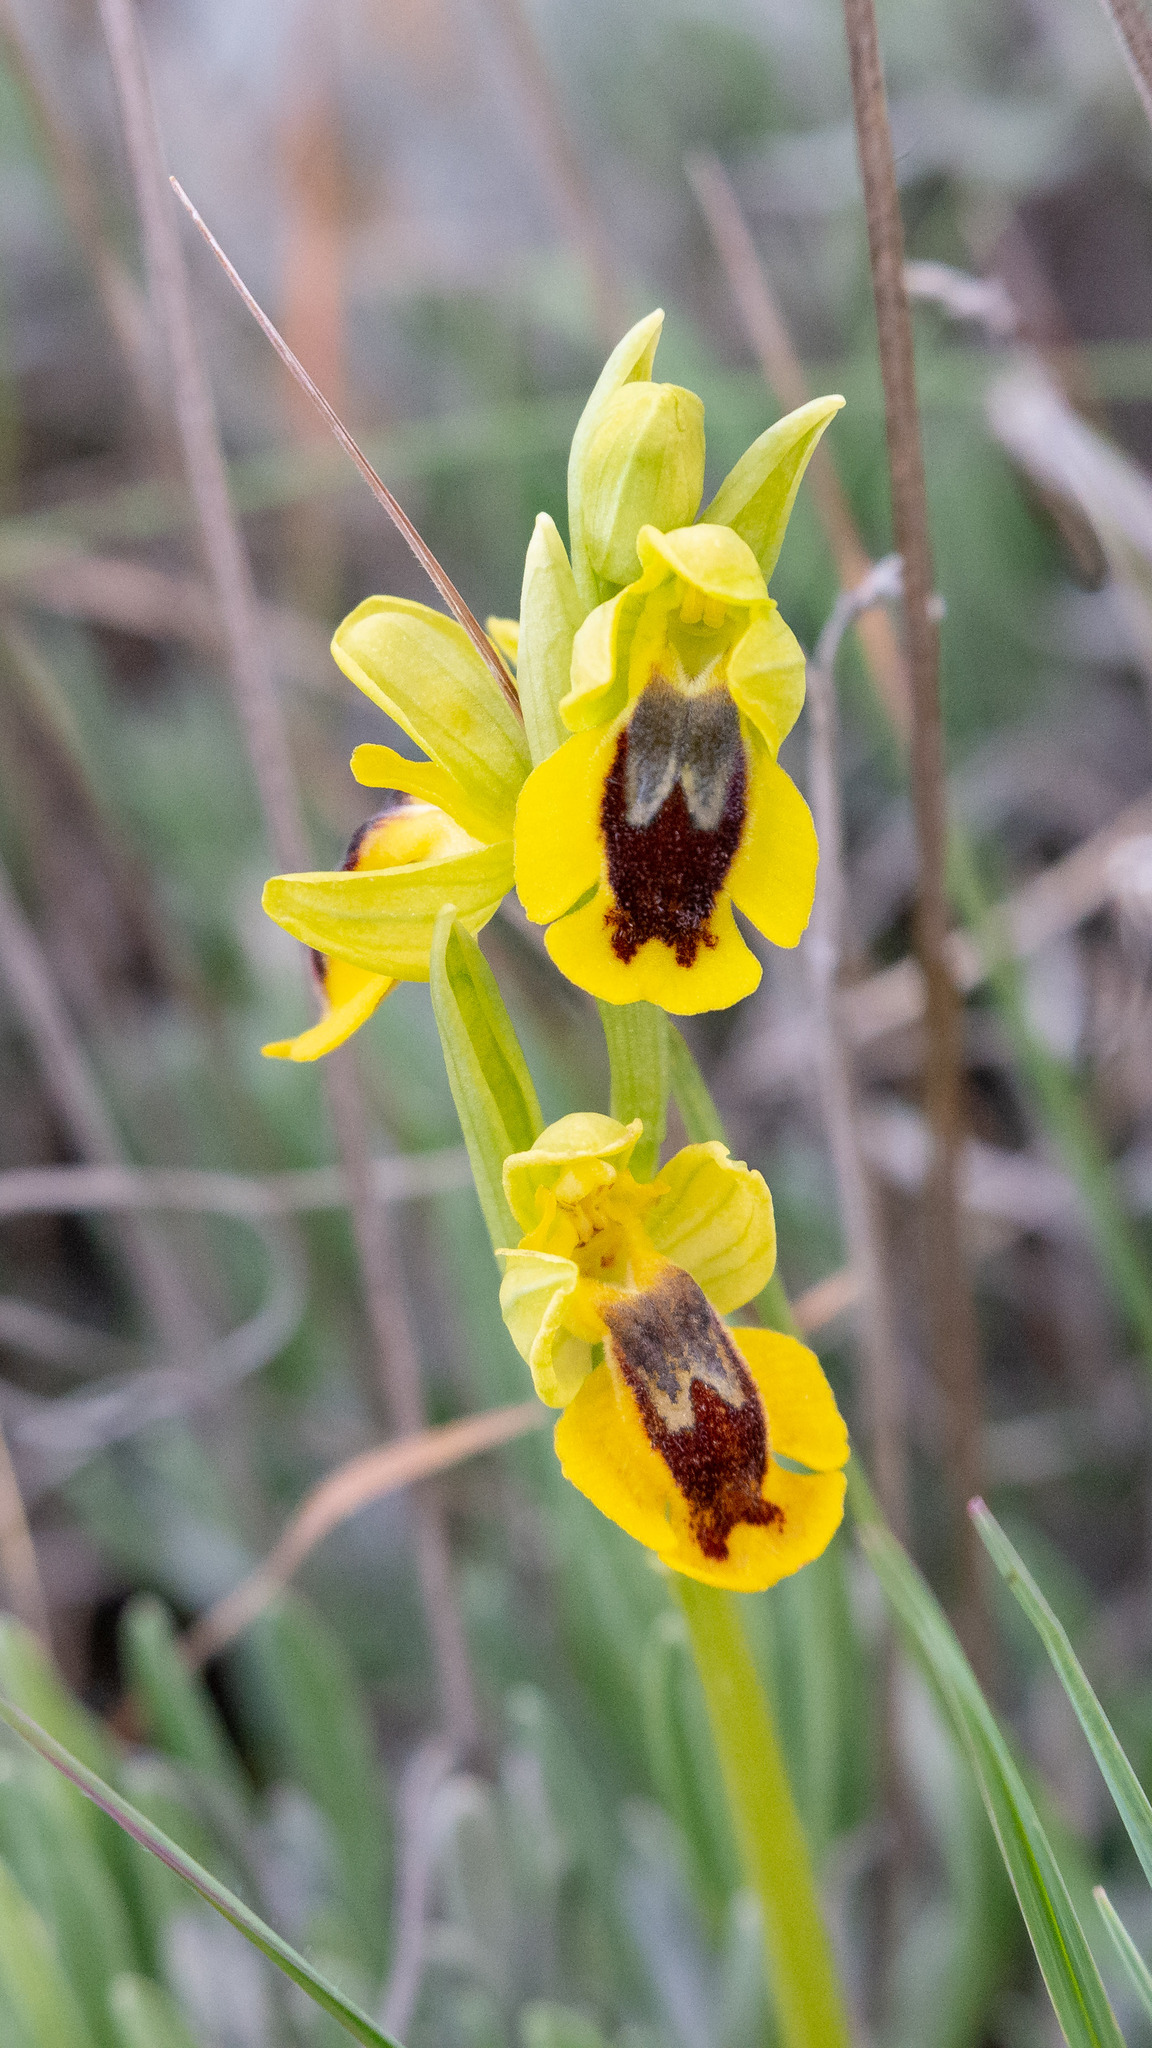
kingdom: Plantae
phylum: Tracheophyta
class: Liliopsida
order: Asparagales
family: Orchidaceae
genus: Ophrys
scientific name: Ophrys lutea
